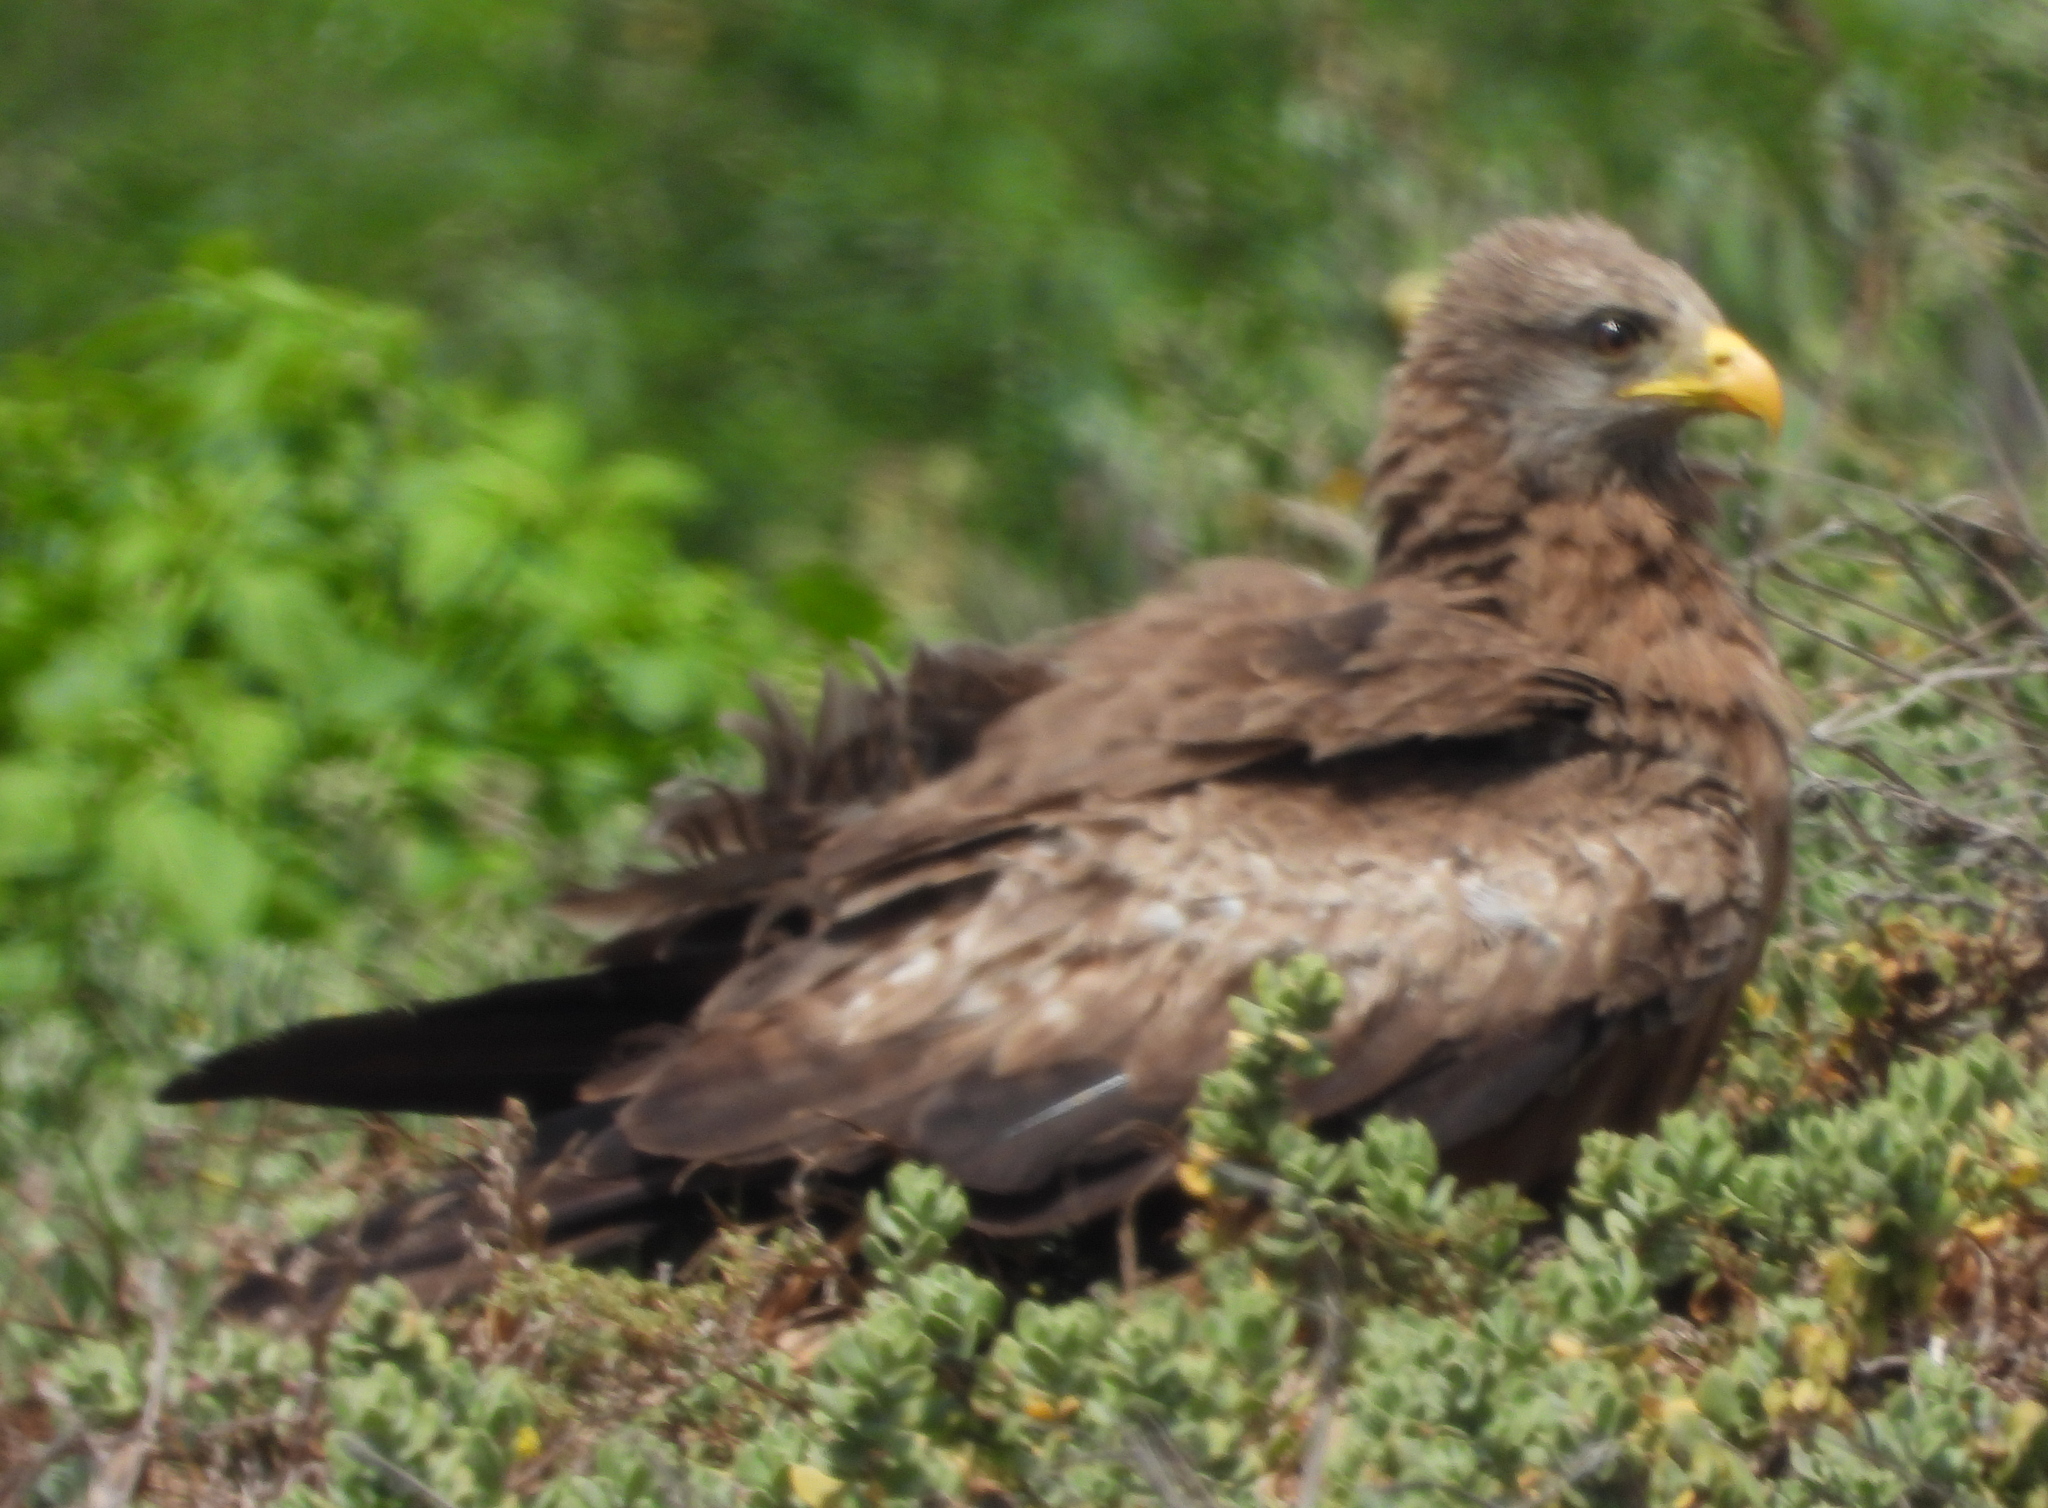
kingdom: Animalia
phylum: Chordata
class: Aves
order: Accipitriformes
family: Accipitridae
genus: Milvus
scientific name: Milvus migrans
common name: Black kite
